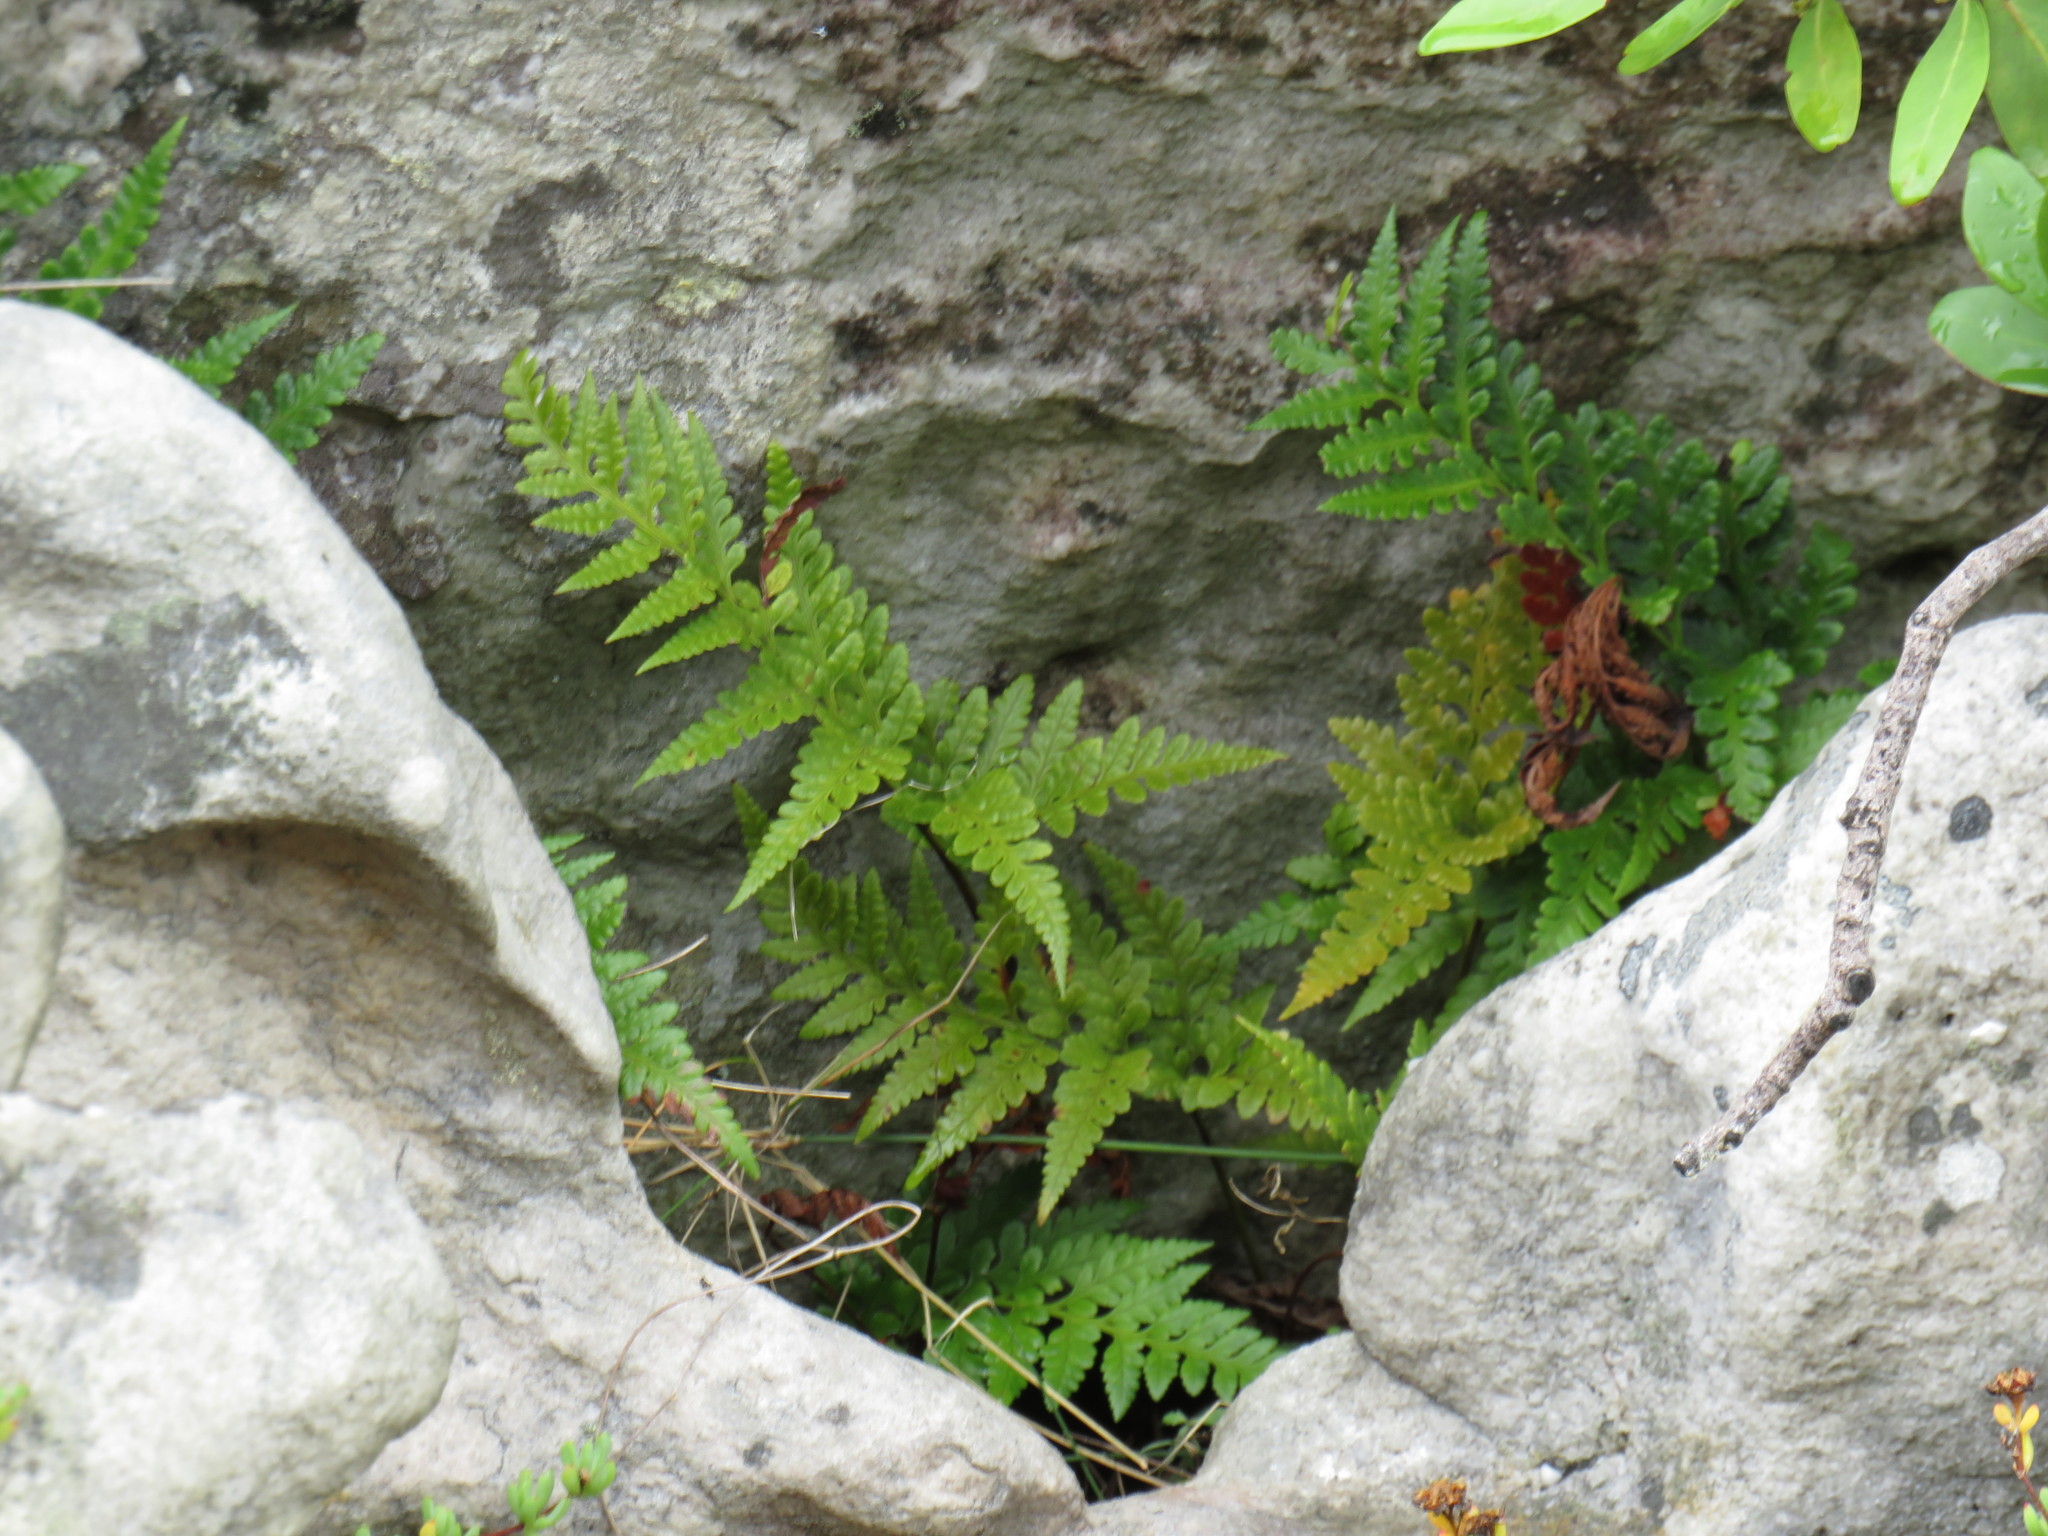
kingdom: Plantae
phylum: Tracheophyta
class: Polypodiopsida
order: Polypodiales
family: Dryopteridaceae
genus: Rumohra
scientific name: Rumohra adiantiformis
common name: Leather fern
